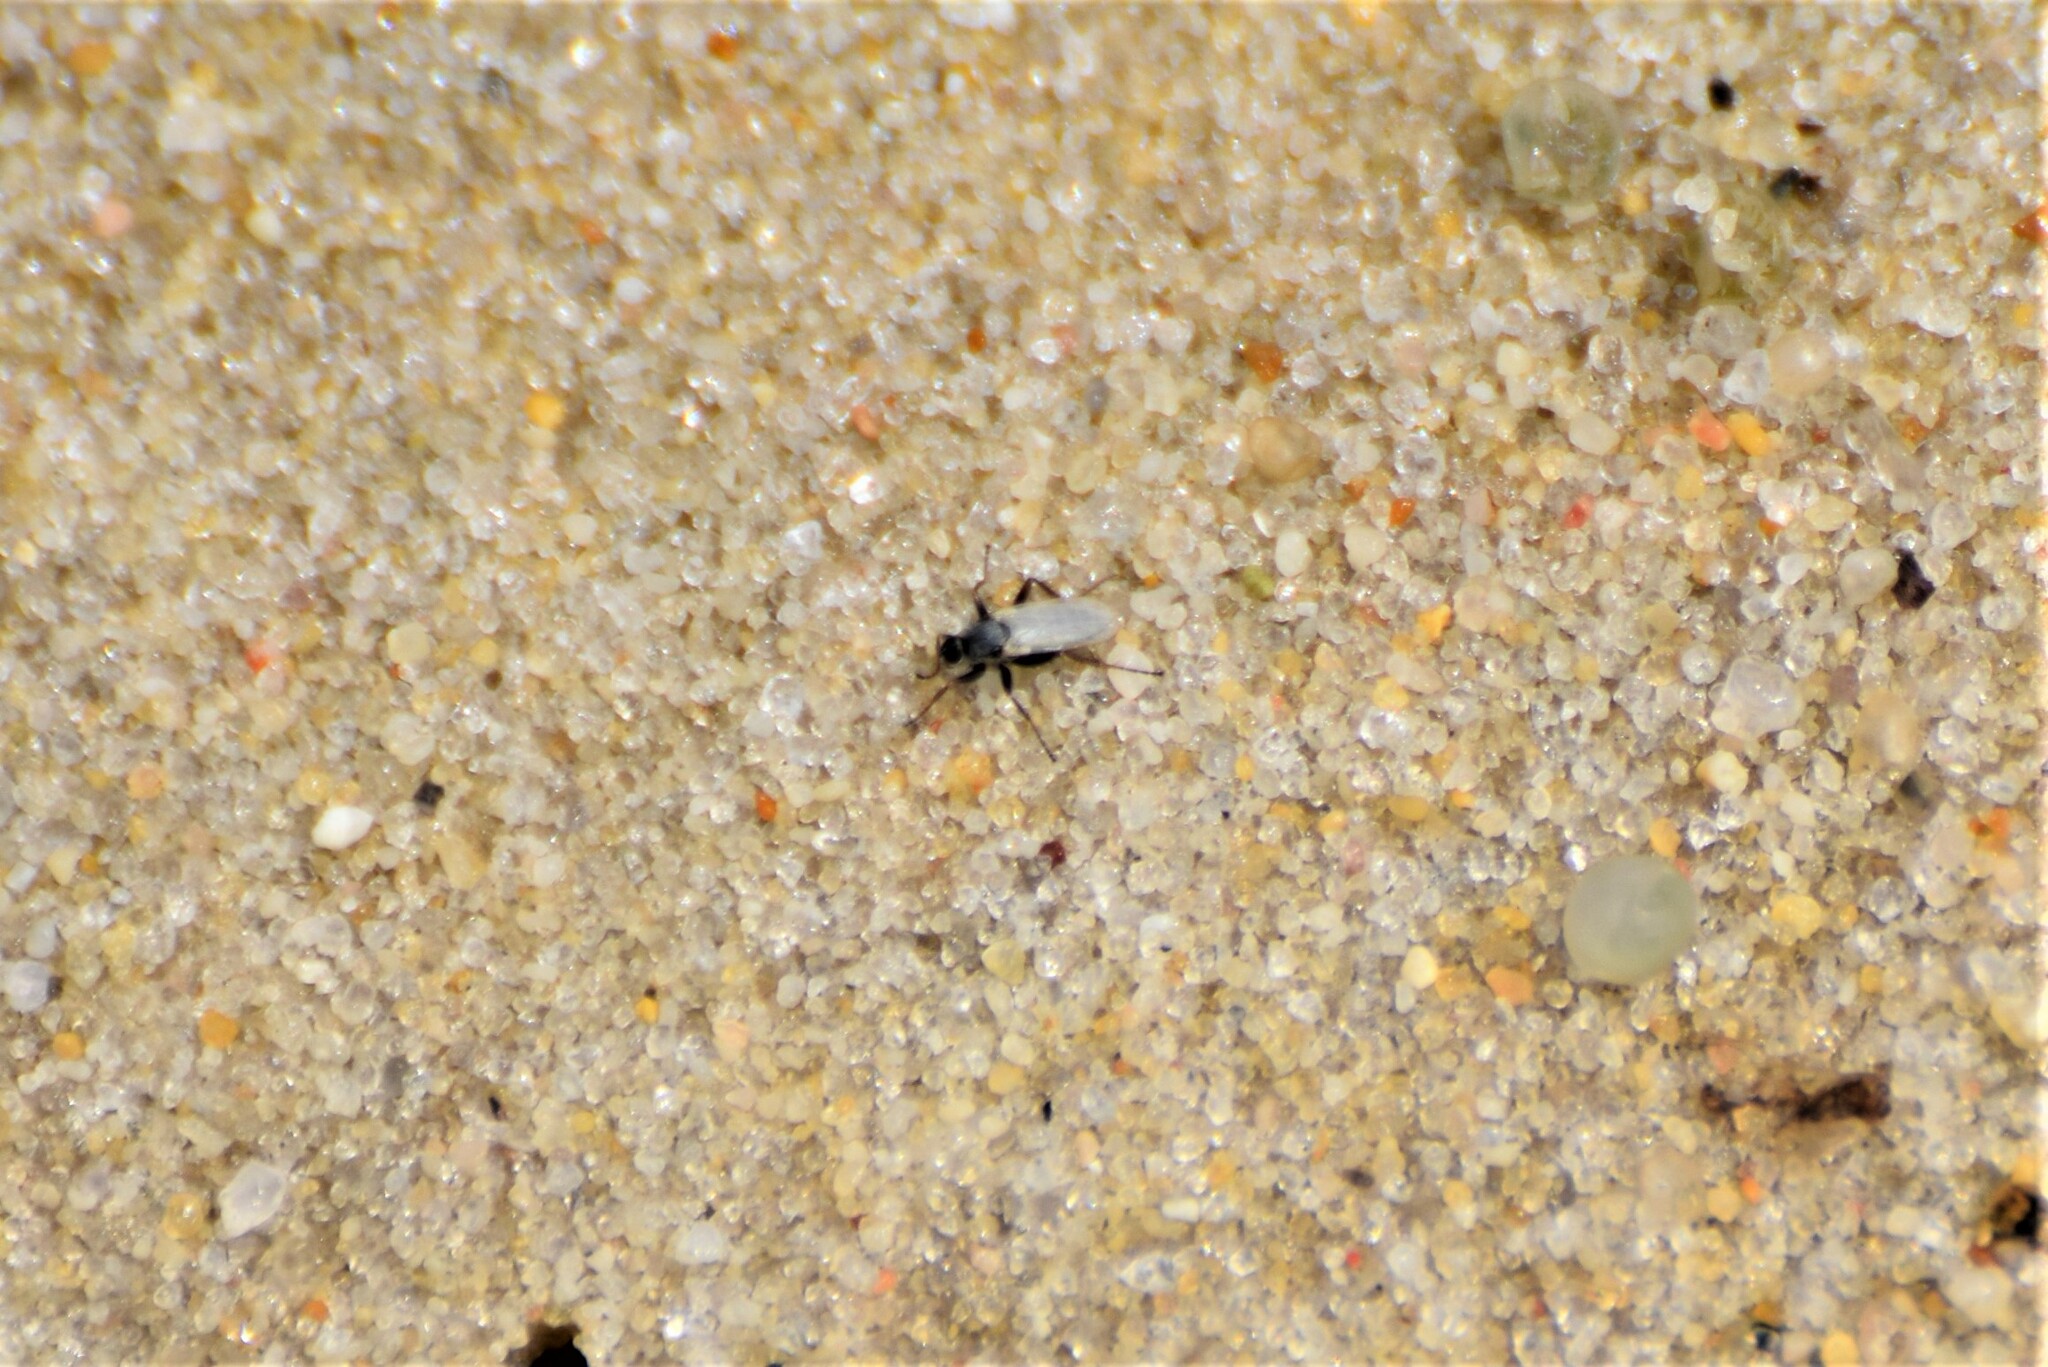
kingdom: Animalia
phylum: Arthropoda
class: Insecta
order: Diptera
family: Hybotidae
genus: Chersodromia
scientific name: Chersodromia inusitata
